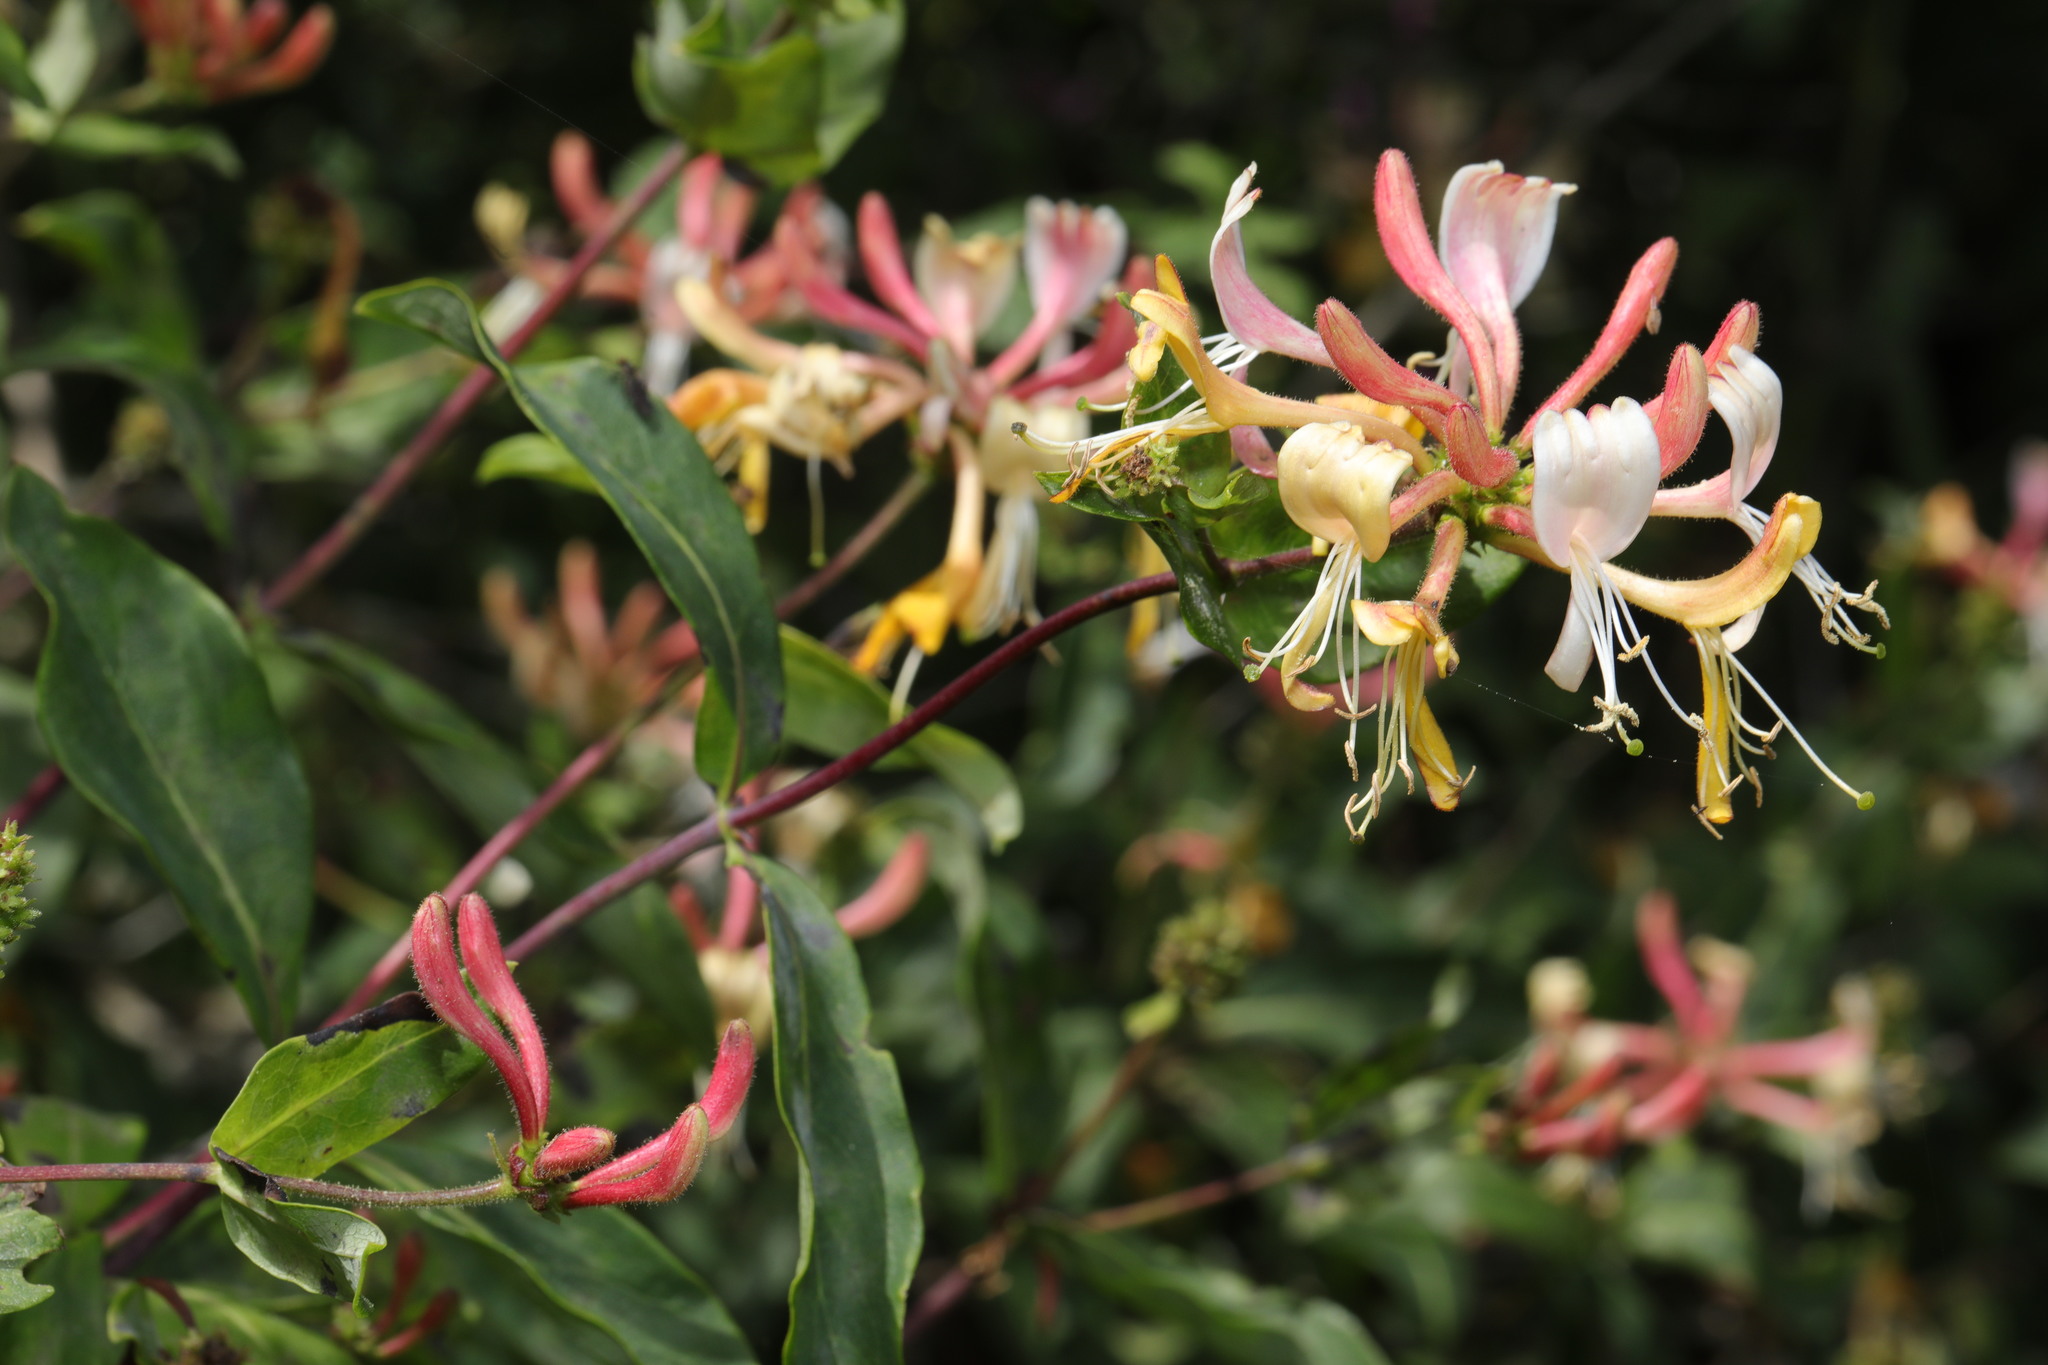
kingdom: Plantae
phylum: Tracheophyta
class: Magnoliopsida
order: Dipsacales
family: Caprifoliaceae
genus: Lonicera
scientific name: Lonicera periclymenum
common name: European honeysuckle
